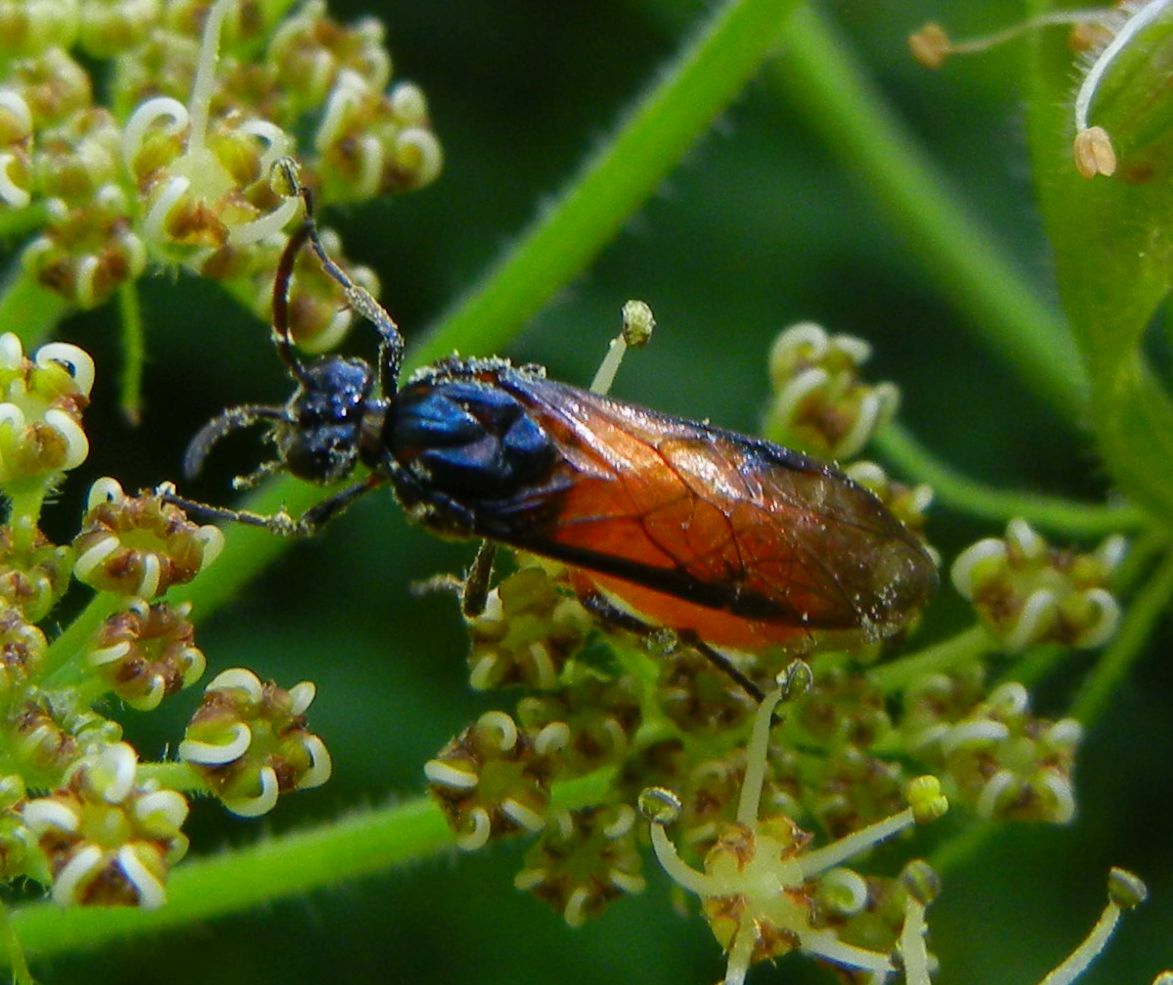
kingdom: Animalia
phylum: Arthropoda
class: Insecta
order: Hymenoptera
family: Argidae
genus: Arge
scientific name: Arge pagana
